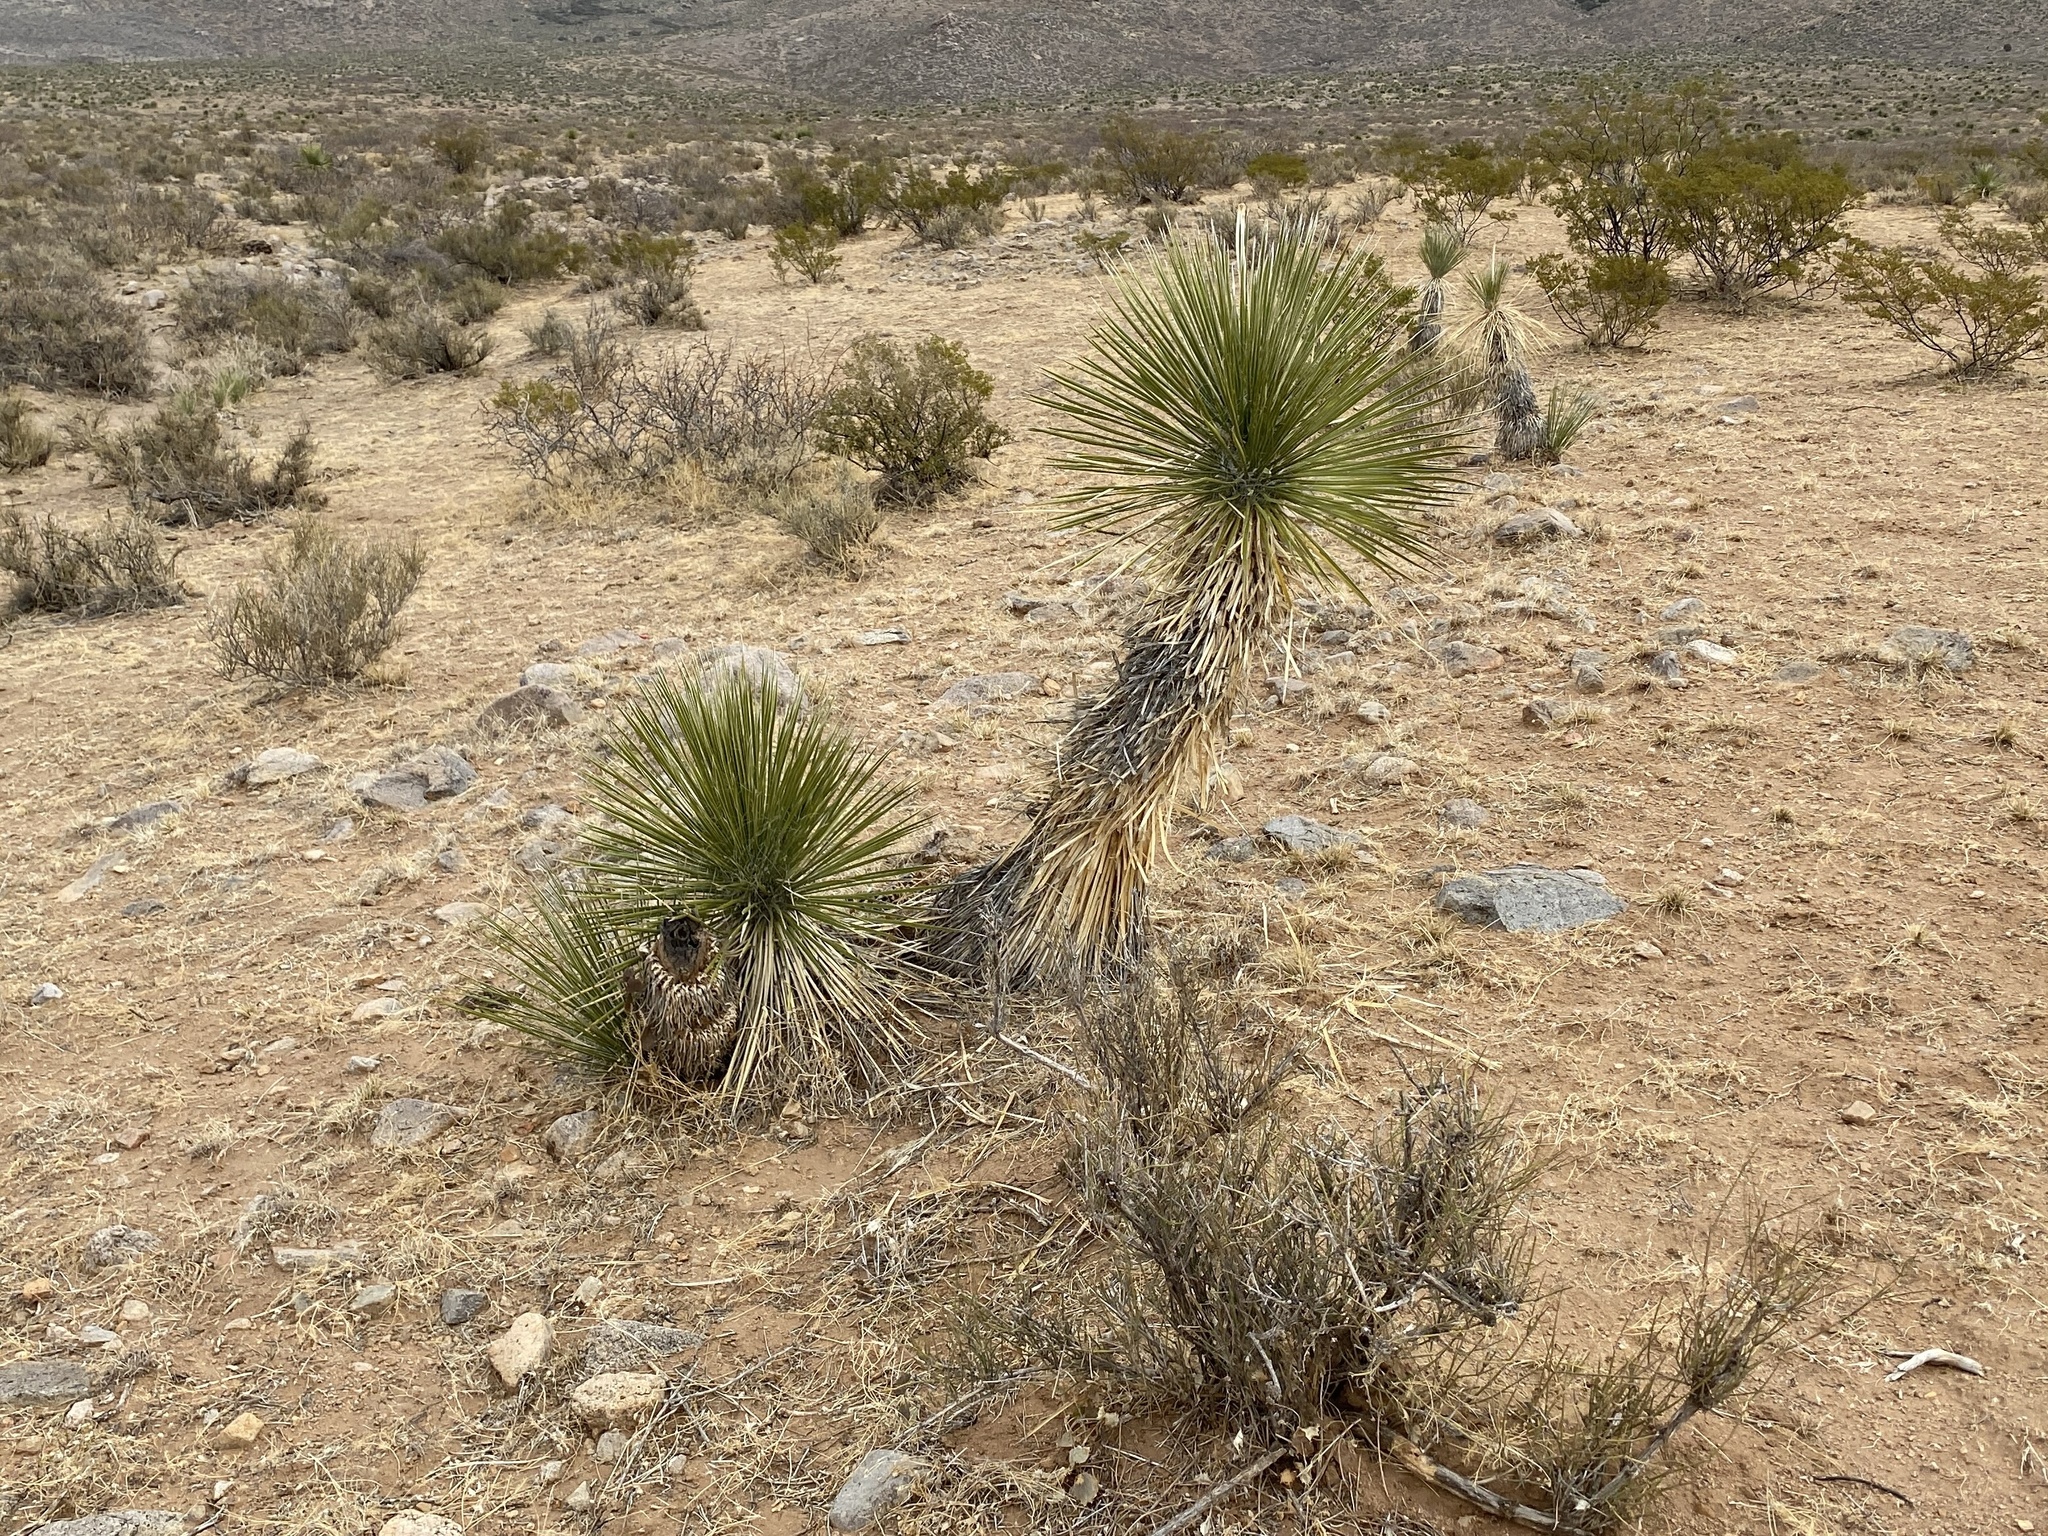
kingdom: Plantae
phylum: Tracheophyta
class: Liliopsida
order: Asparagales
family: Asparagaceae
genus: Yucca
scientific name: Yucca elata
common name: Palmella
